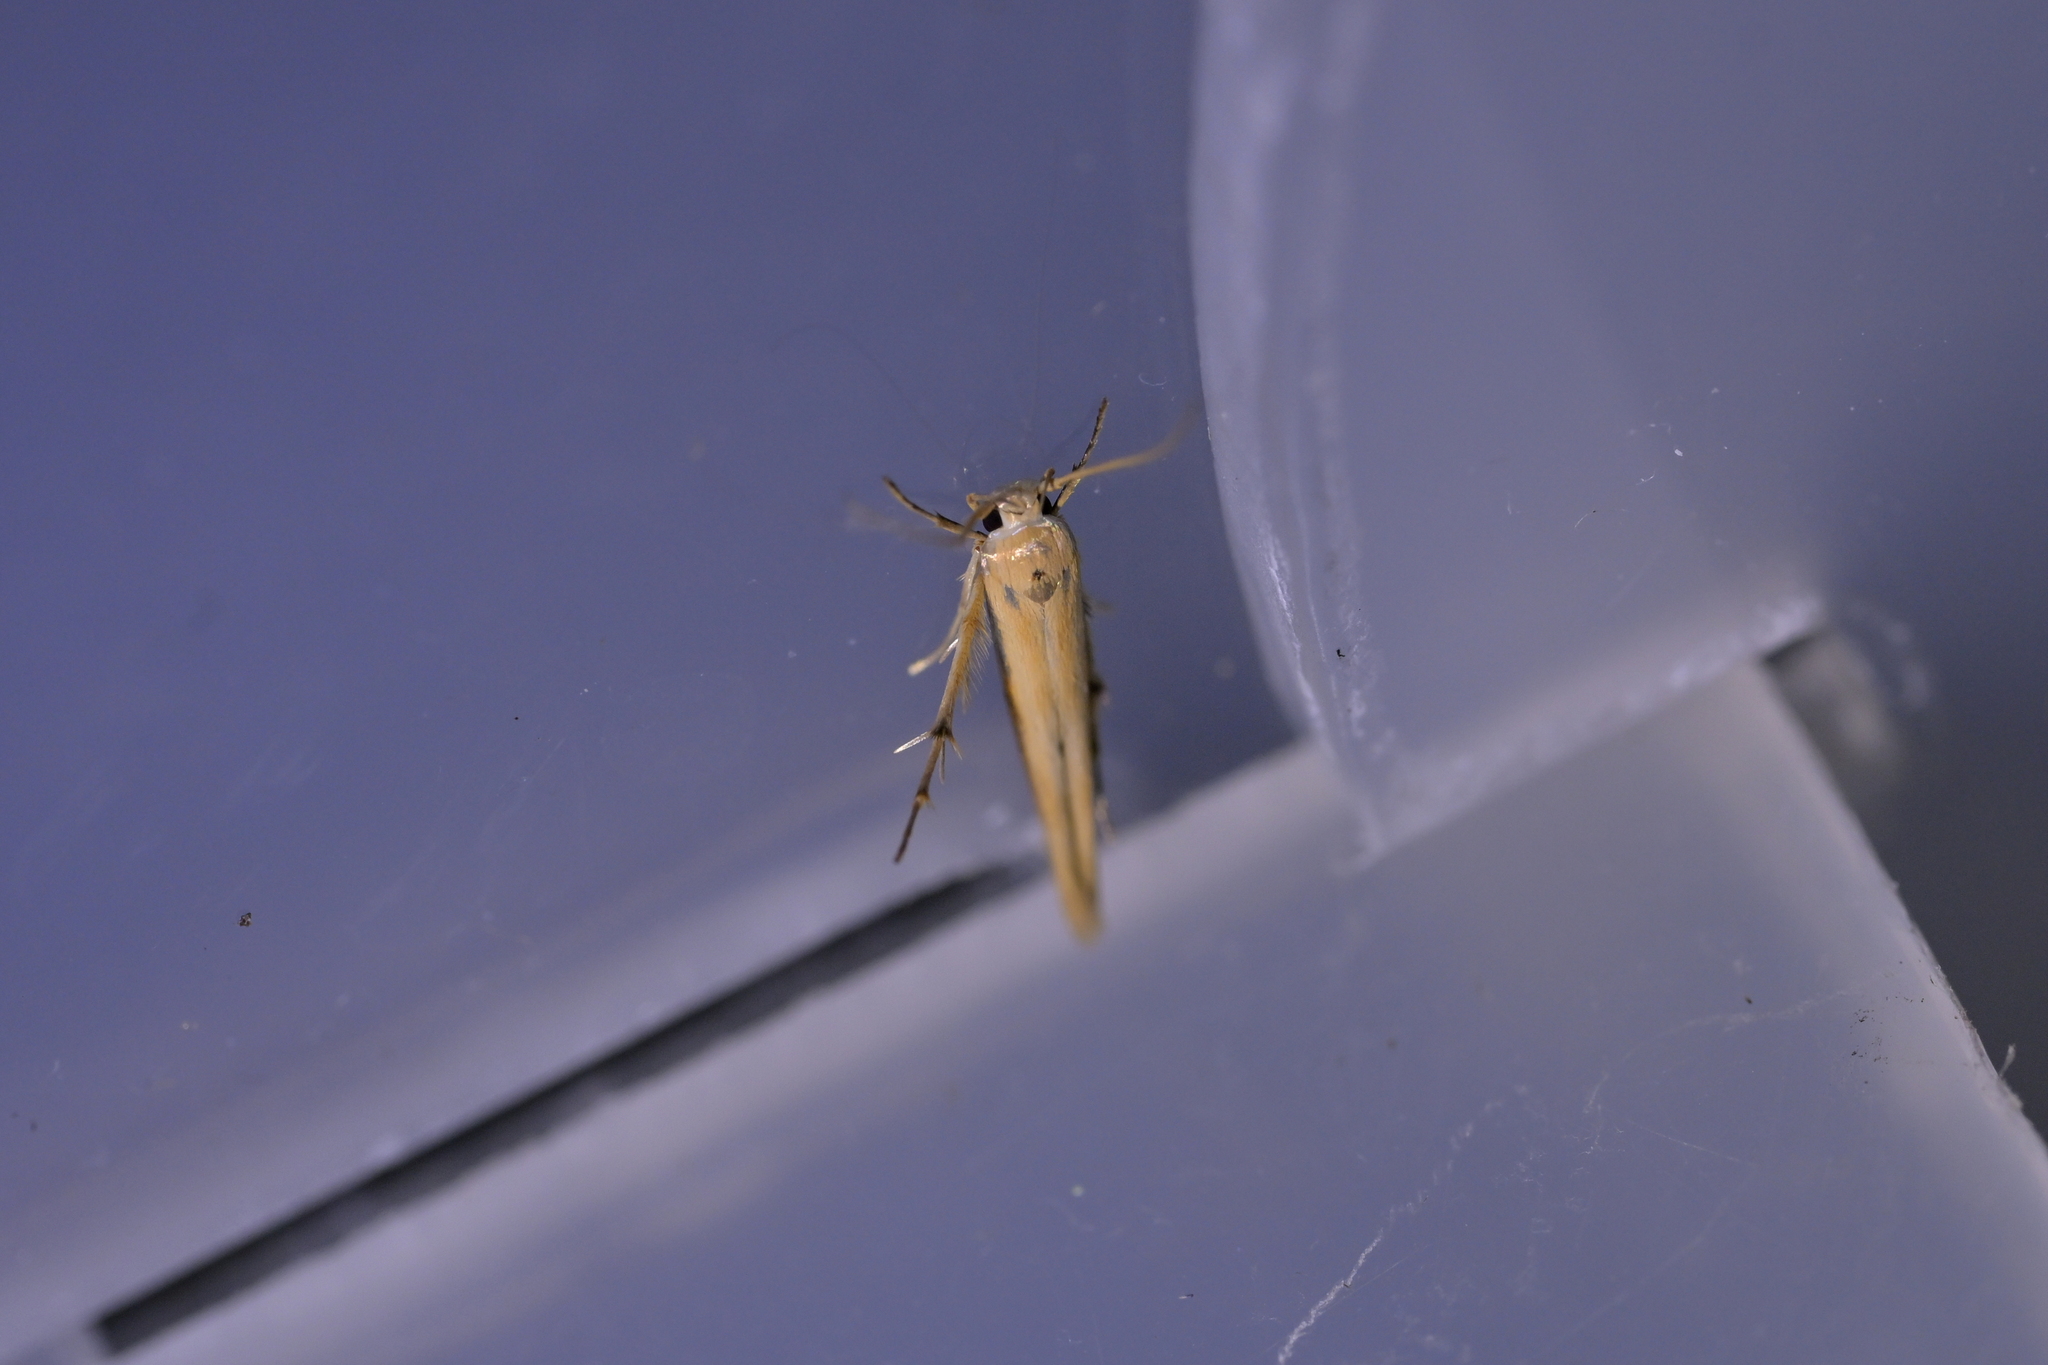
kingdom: Animalia
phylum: Arthropoda
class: Insecta
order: Lepidoptera
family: Stathmopodidae
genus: Stathmopoda
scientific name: Stathmopoda skelloni
